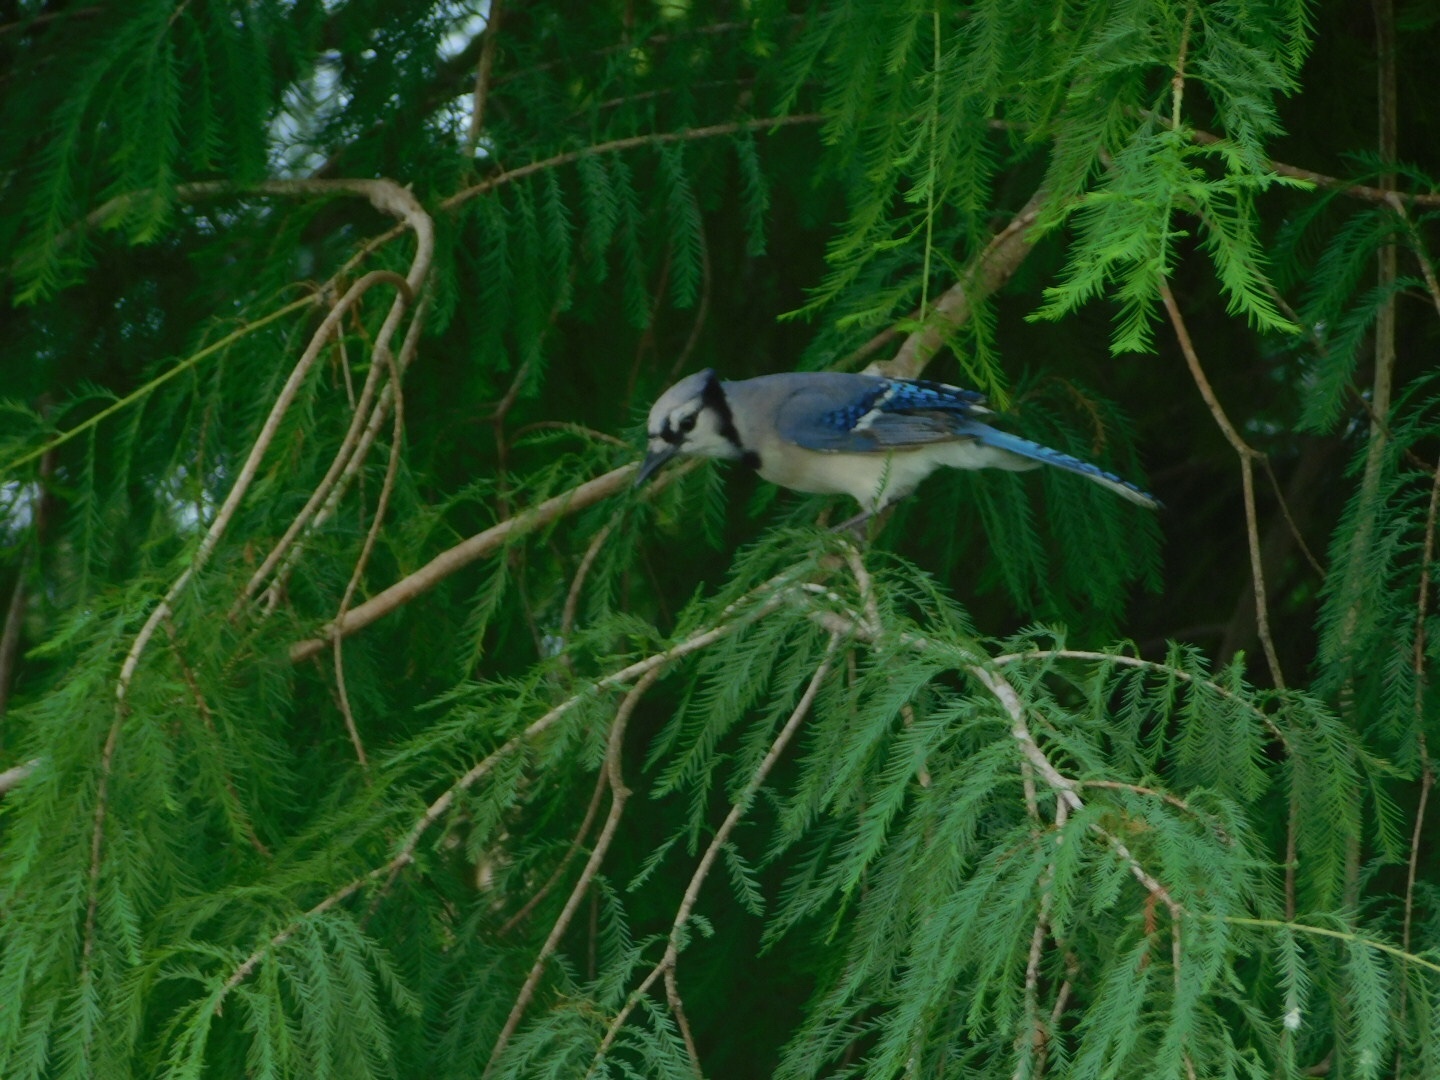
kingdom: Animalia
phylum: Chordata
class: Aves
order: Passeriformes
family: Corvidae
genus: Cyanocitta
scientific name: Cyanocitta cristata
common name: Blue jay
